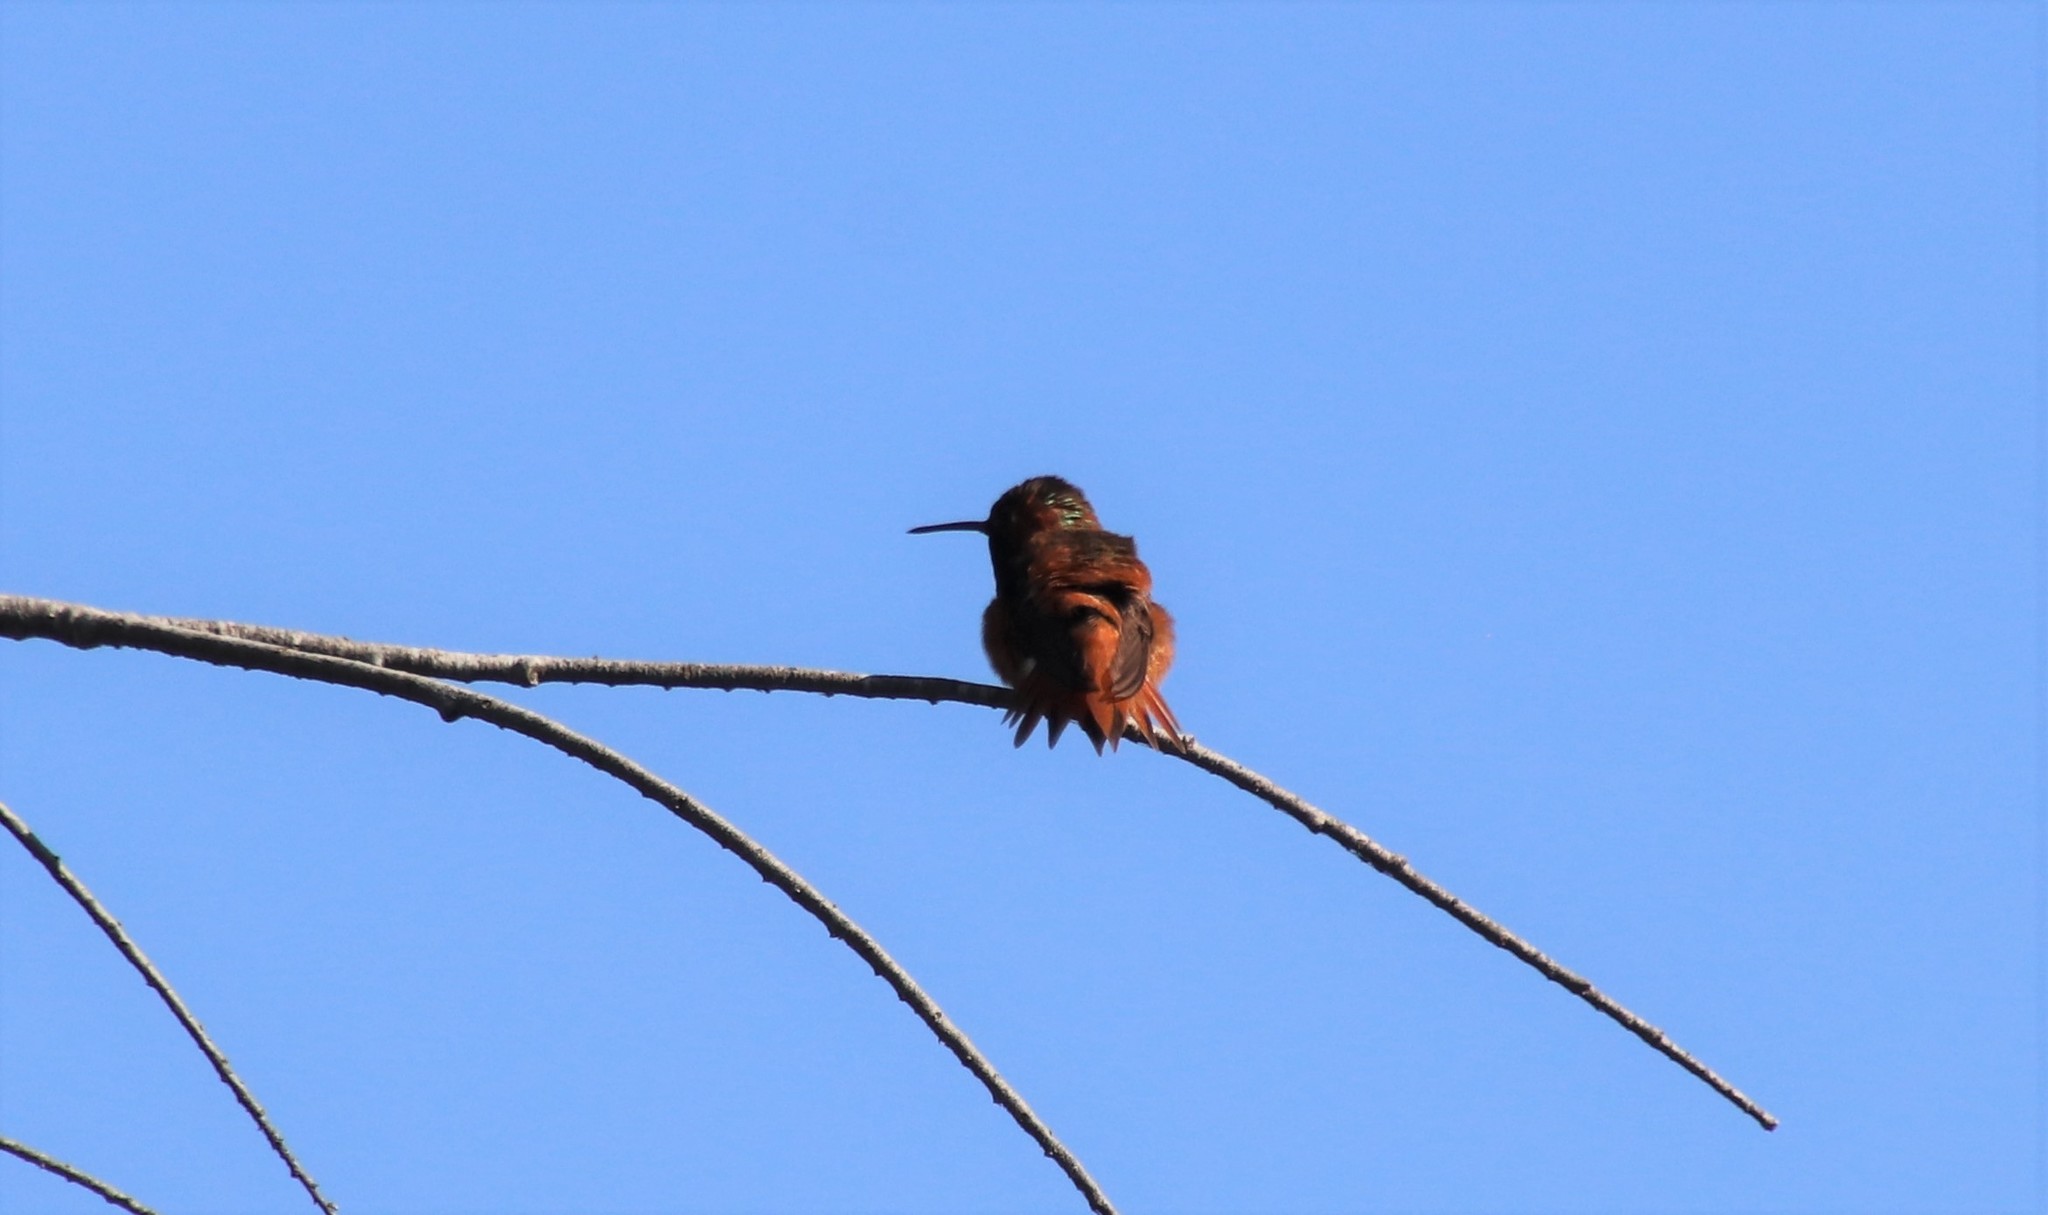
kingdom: Animalia
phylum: Chordata
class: Aves
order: Apodiformes
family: Trochilidae
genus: Selasphorus
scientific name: Selasphorus sasin
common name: Allen's hummingbird
